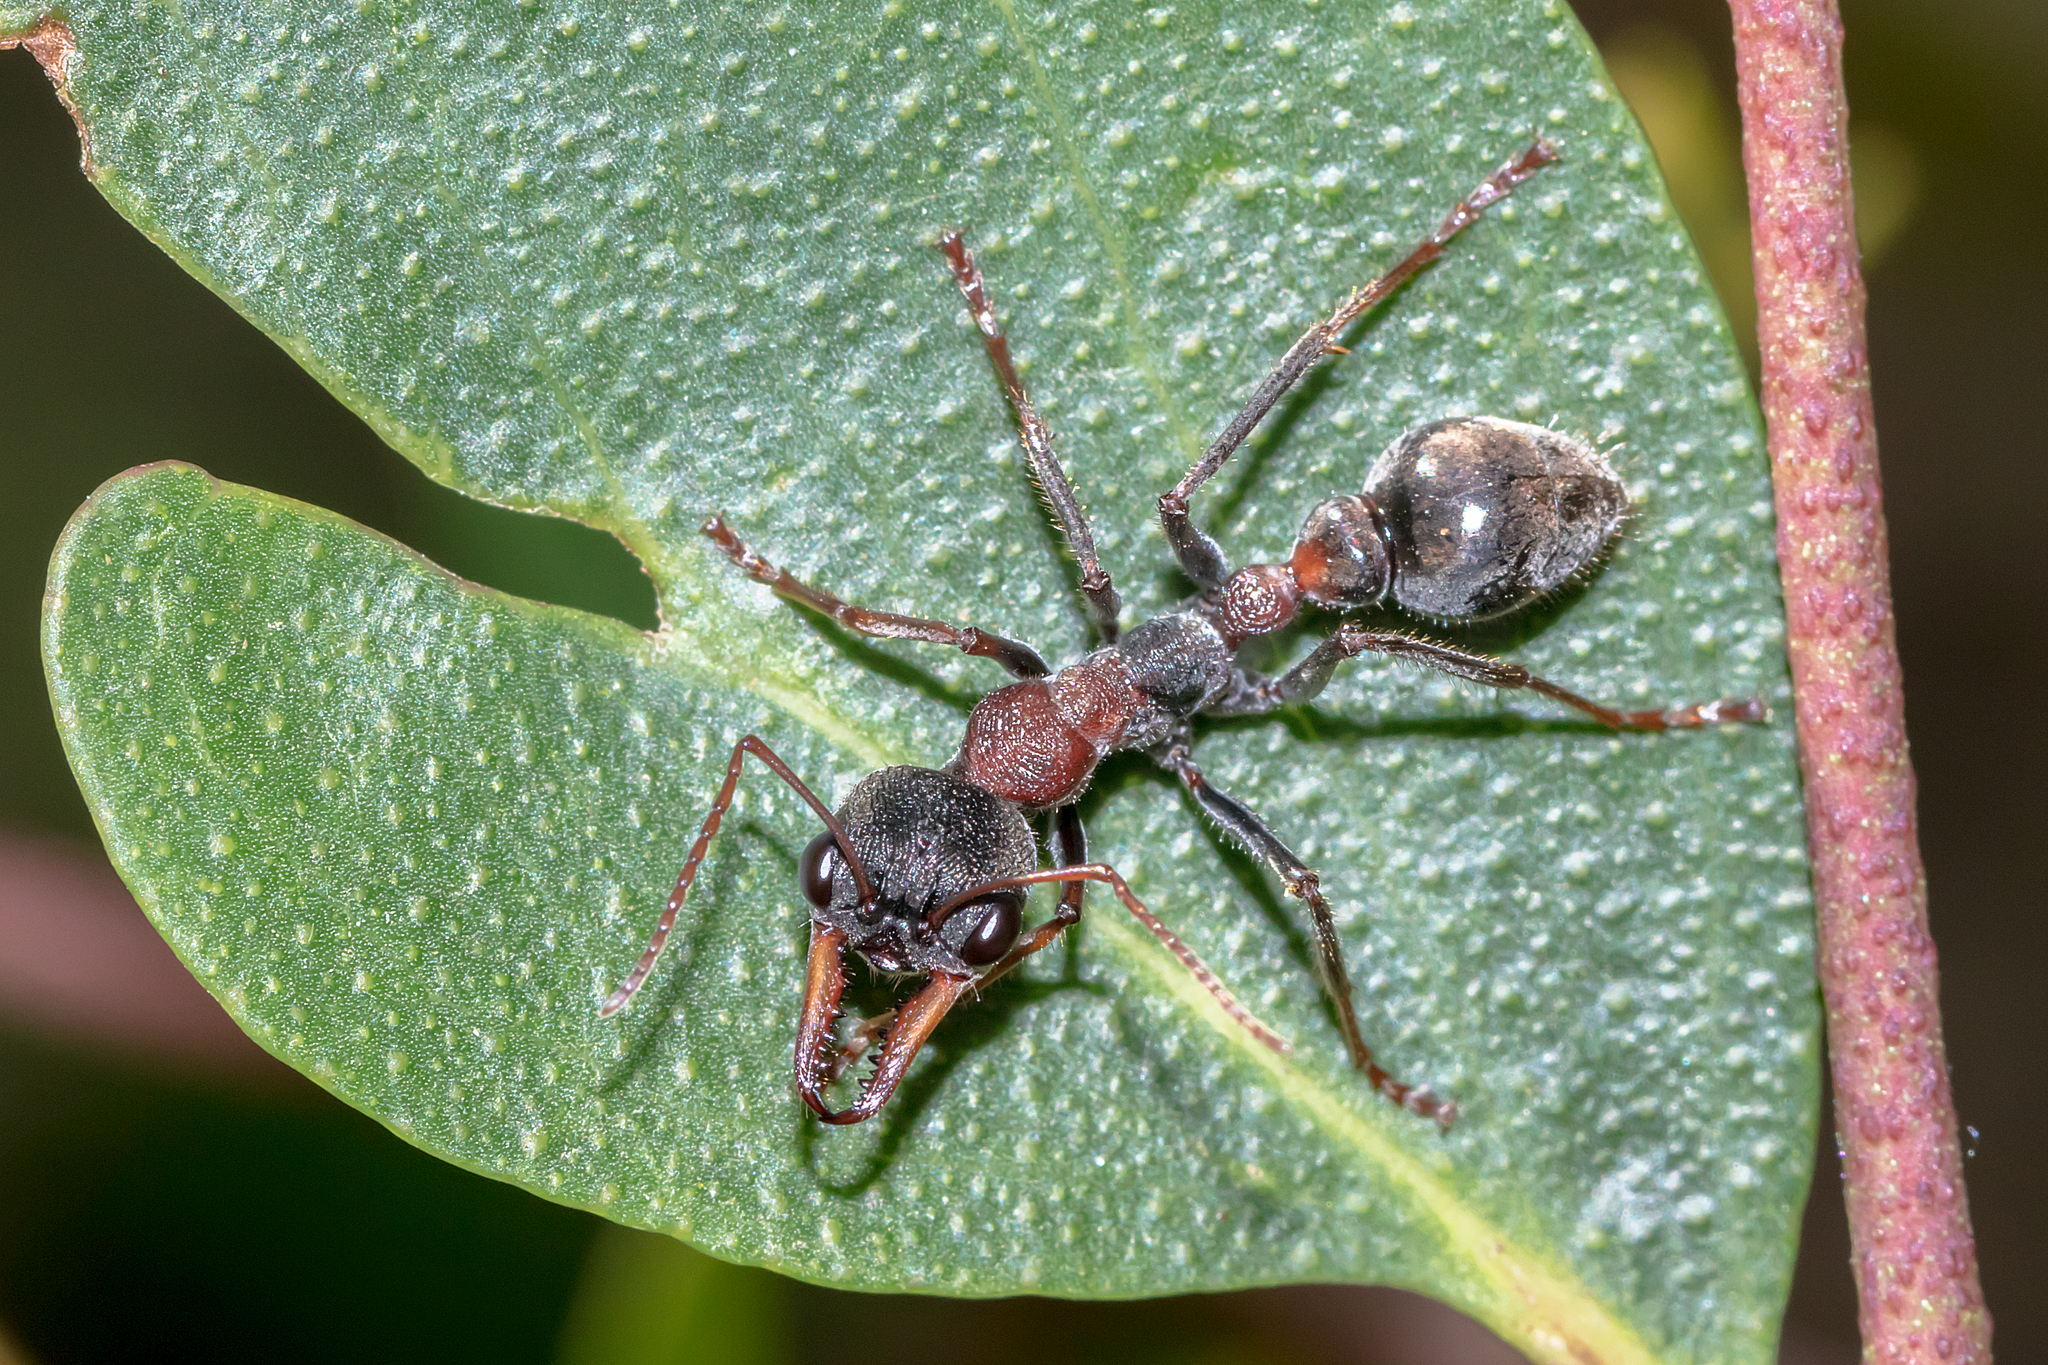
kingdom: Animalia
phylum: Arthropoda
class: Insecta
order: Hymenoptera
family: Formicidae
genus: Myrmecia
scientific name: Myrmecia pulchra
